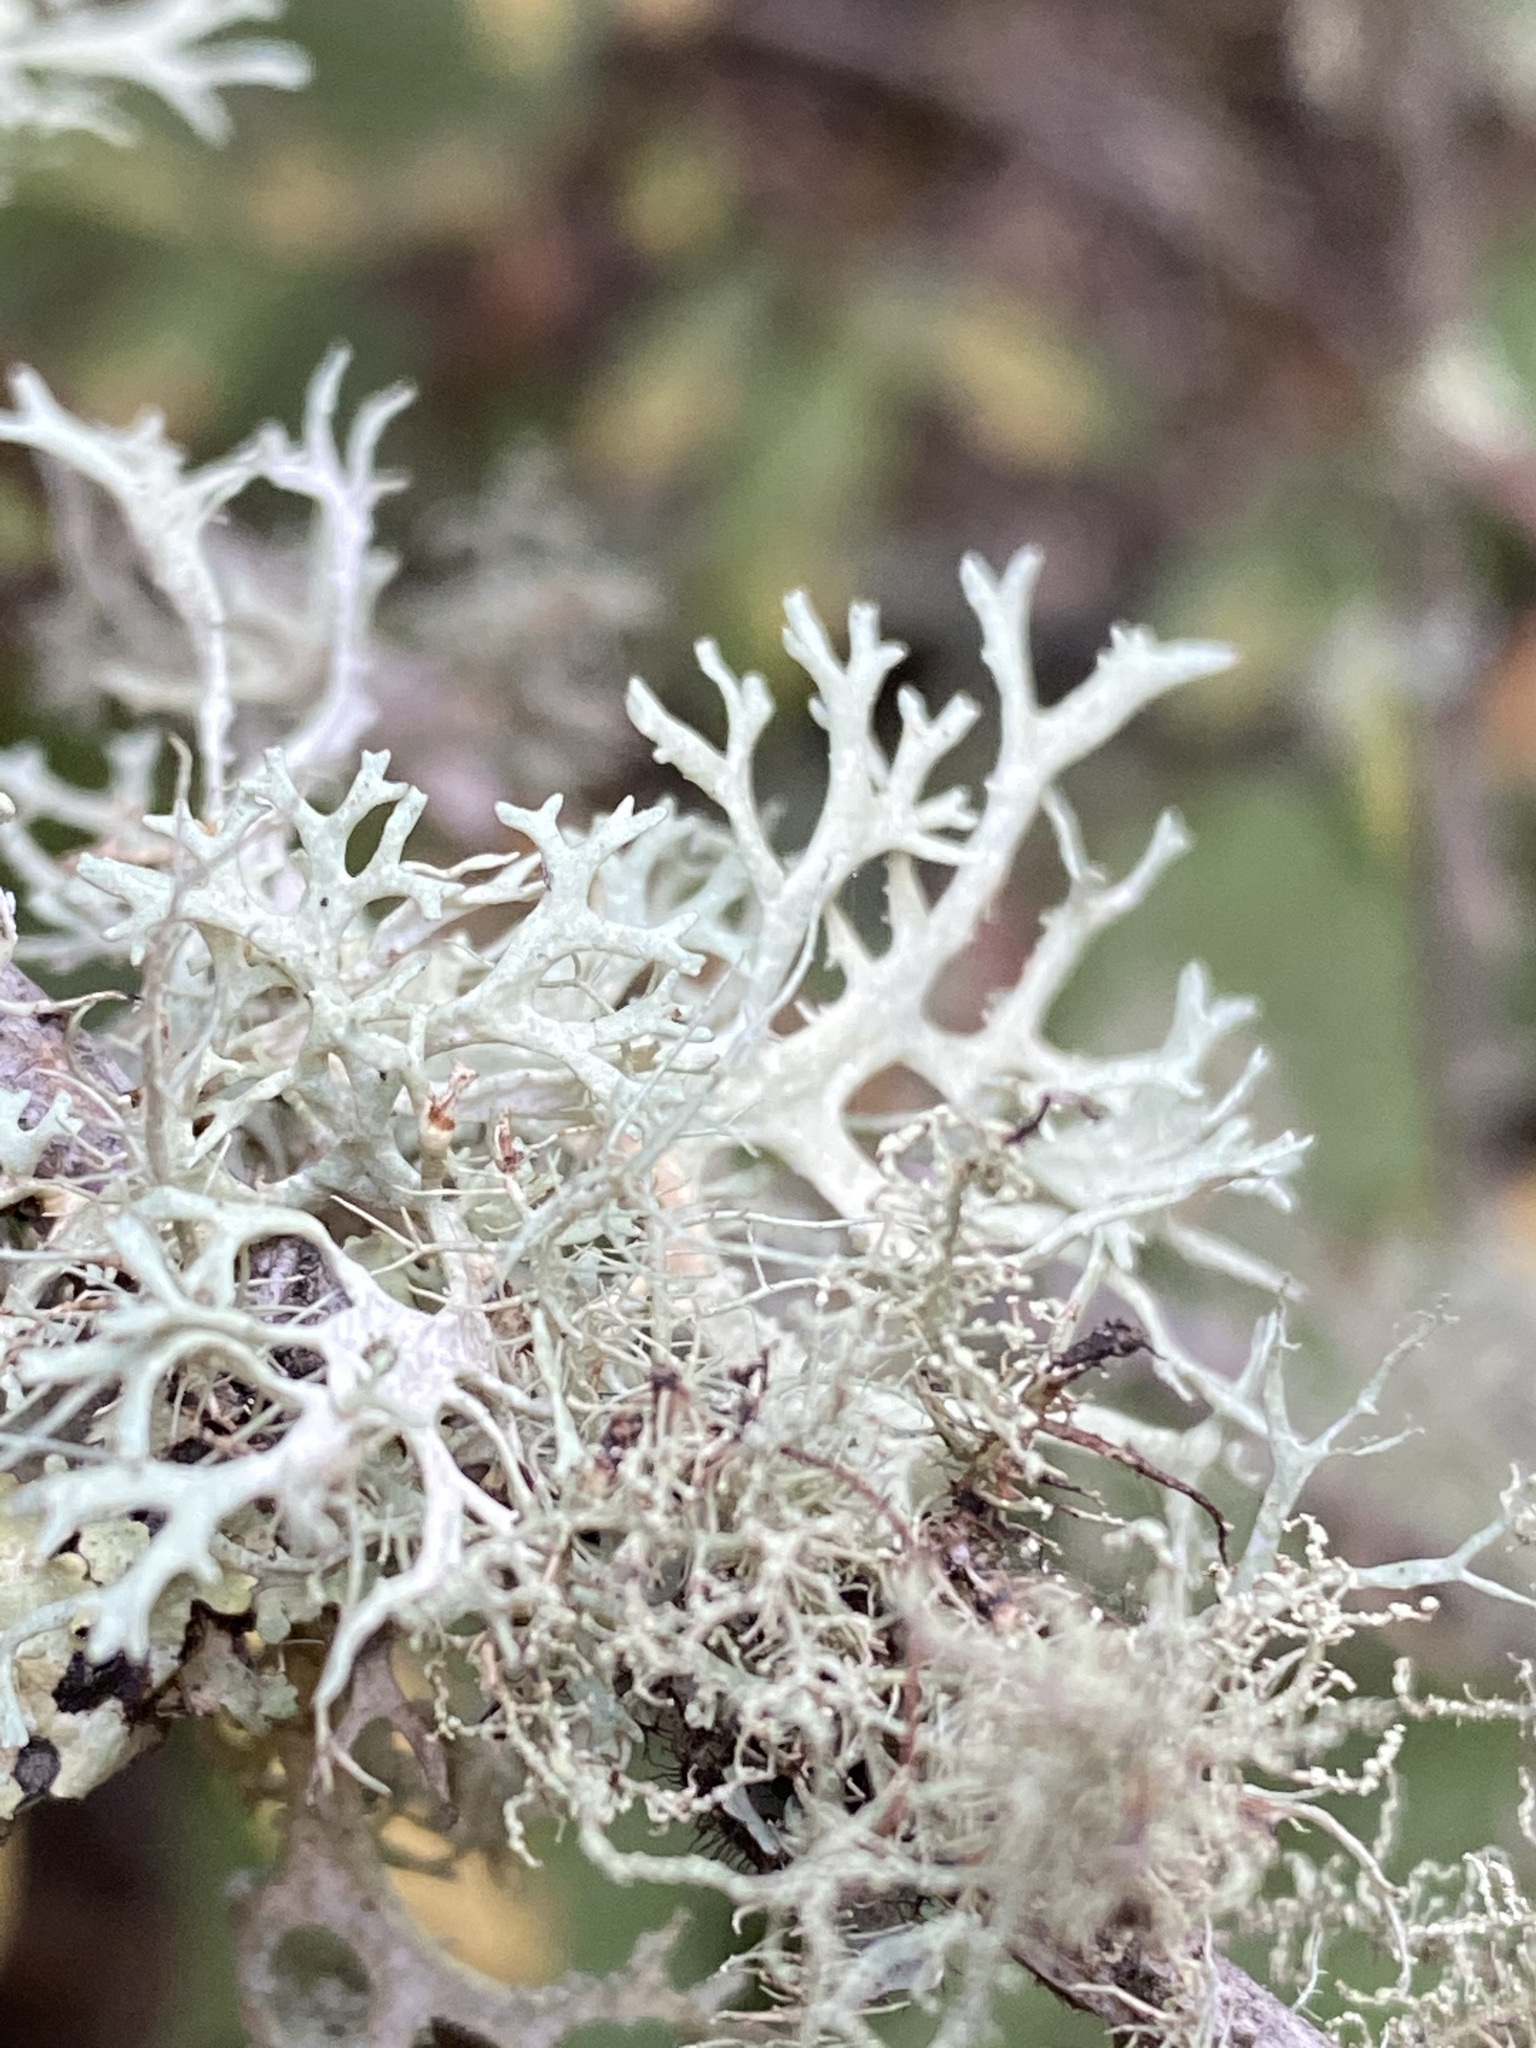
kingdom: Fungi
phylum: Ascomycota
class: Lecanoromycetes
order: Lecanorales
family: Parmeliaceae
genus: Evernia
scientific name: Evernia prunastri
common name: Oak moss
